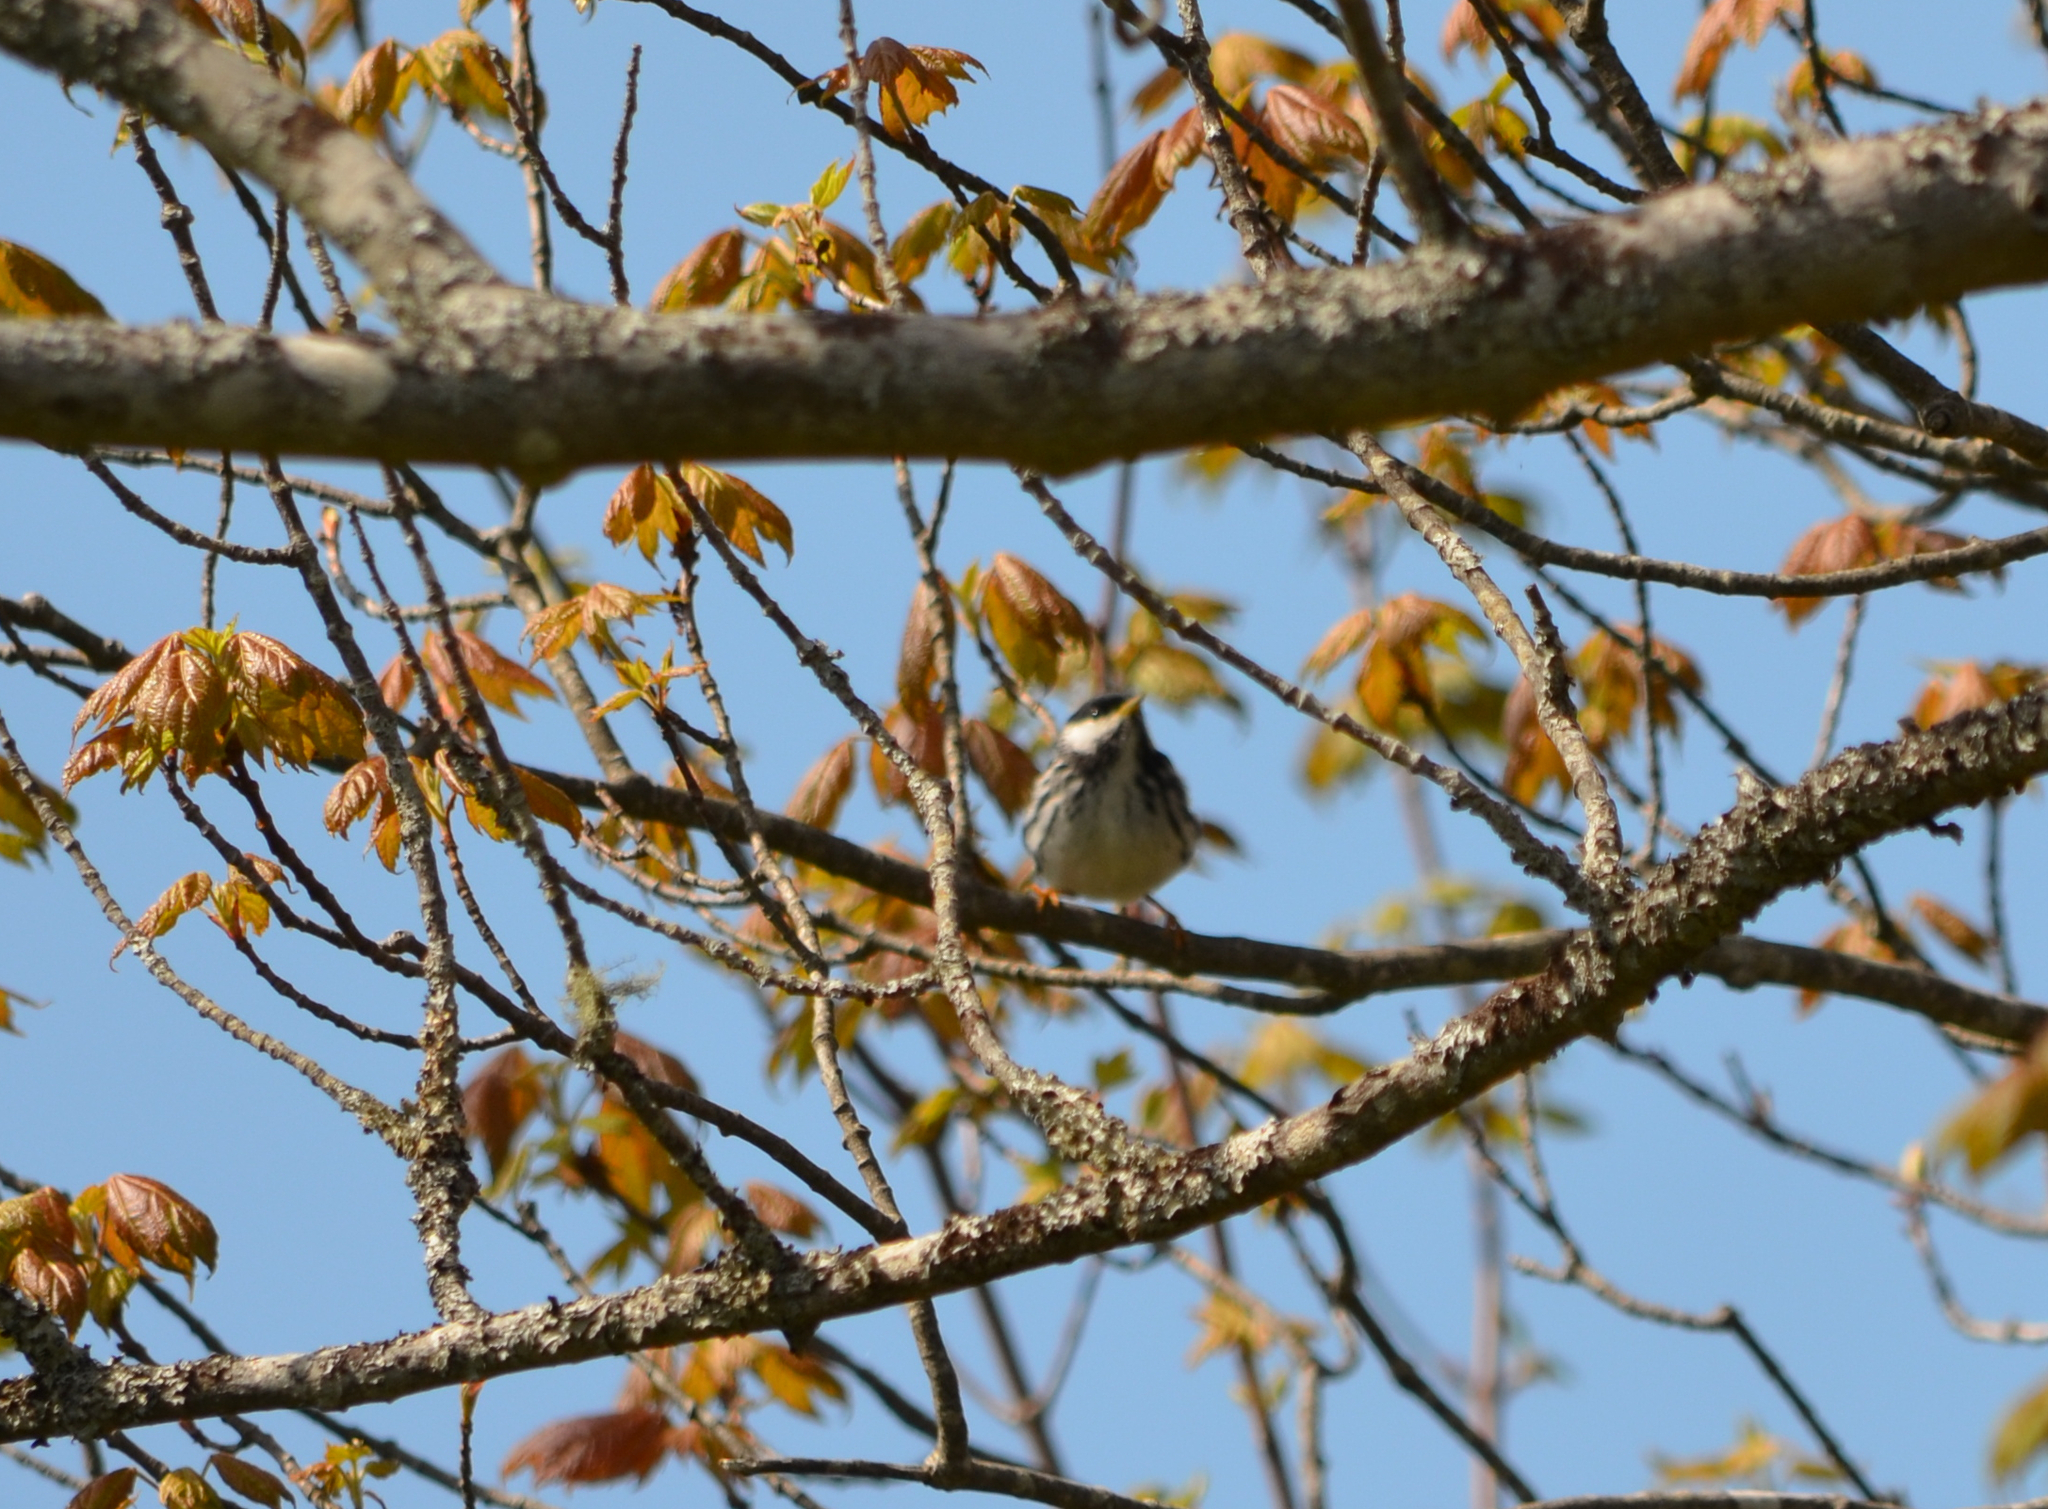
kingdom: Animalia
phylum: Chordata
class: Aves
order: Passeriformes
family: Parulidae
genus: Setophaga
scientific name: Setophaga striata
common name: Blackpoll warbler
